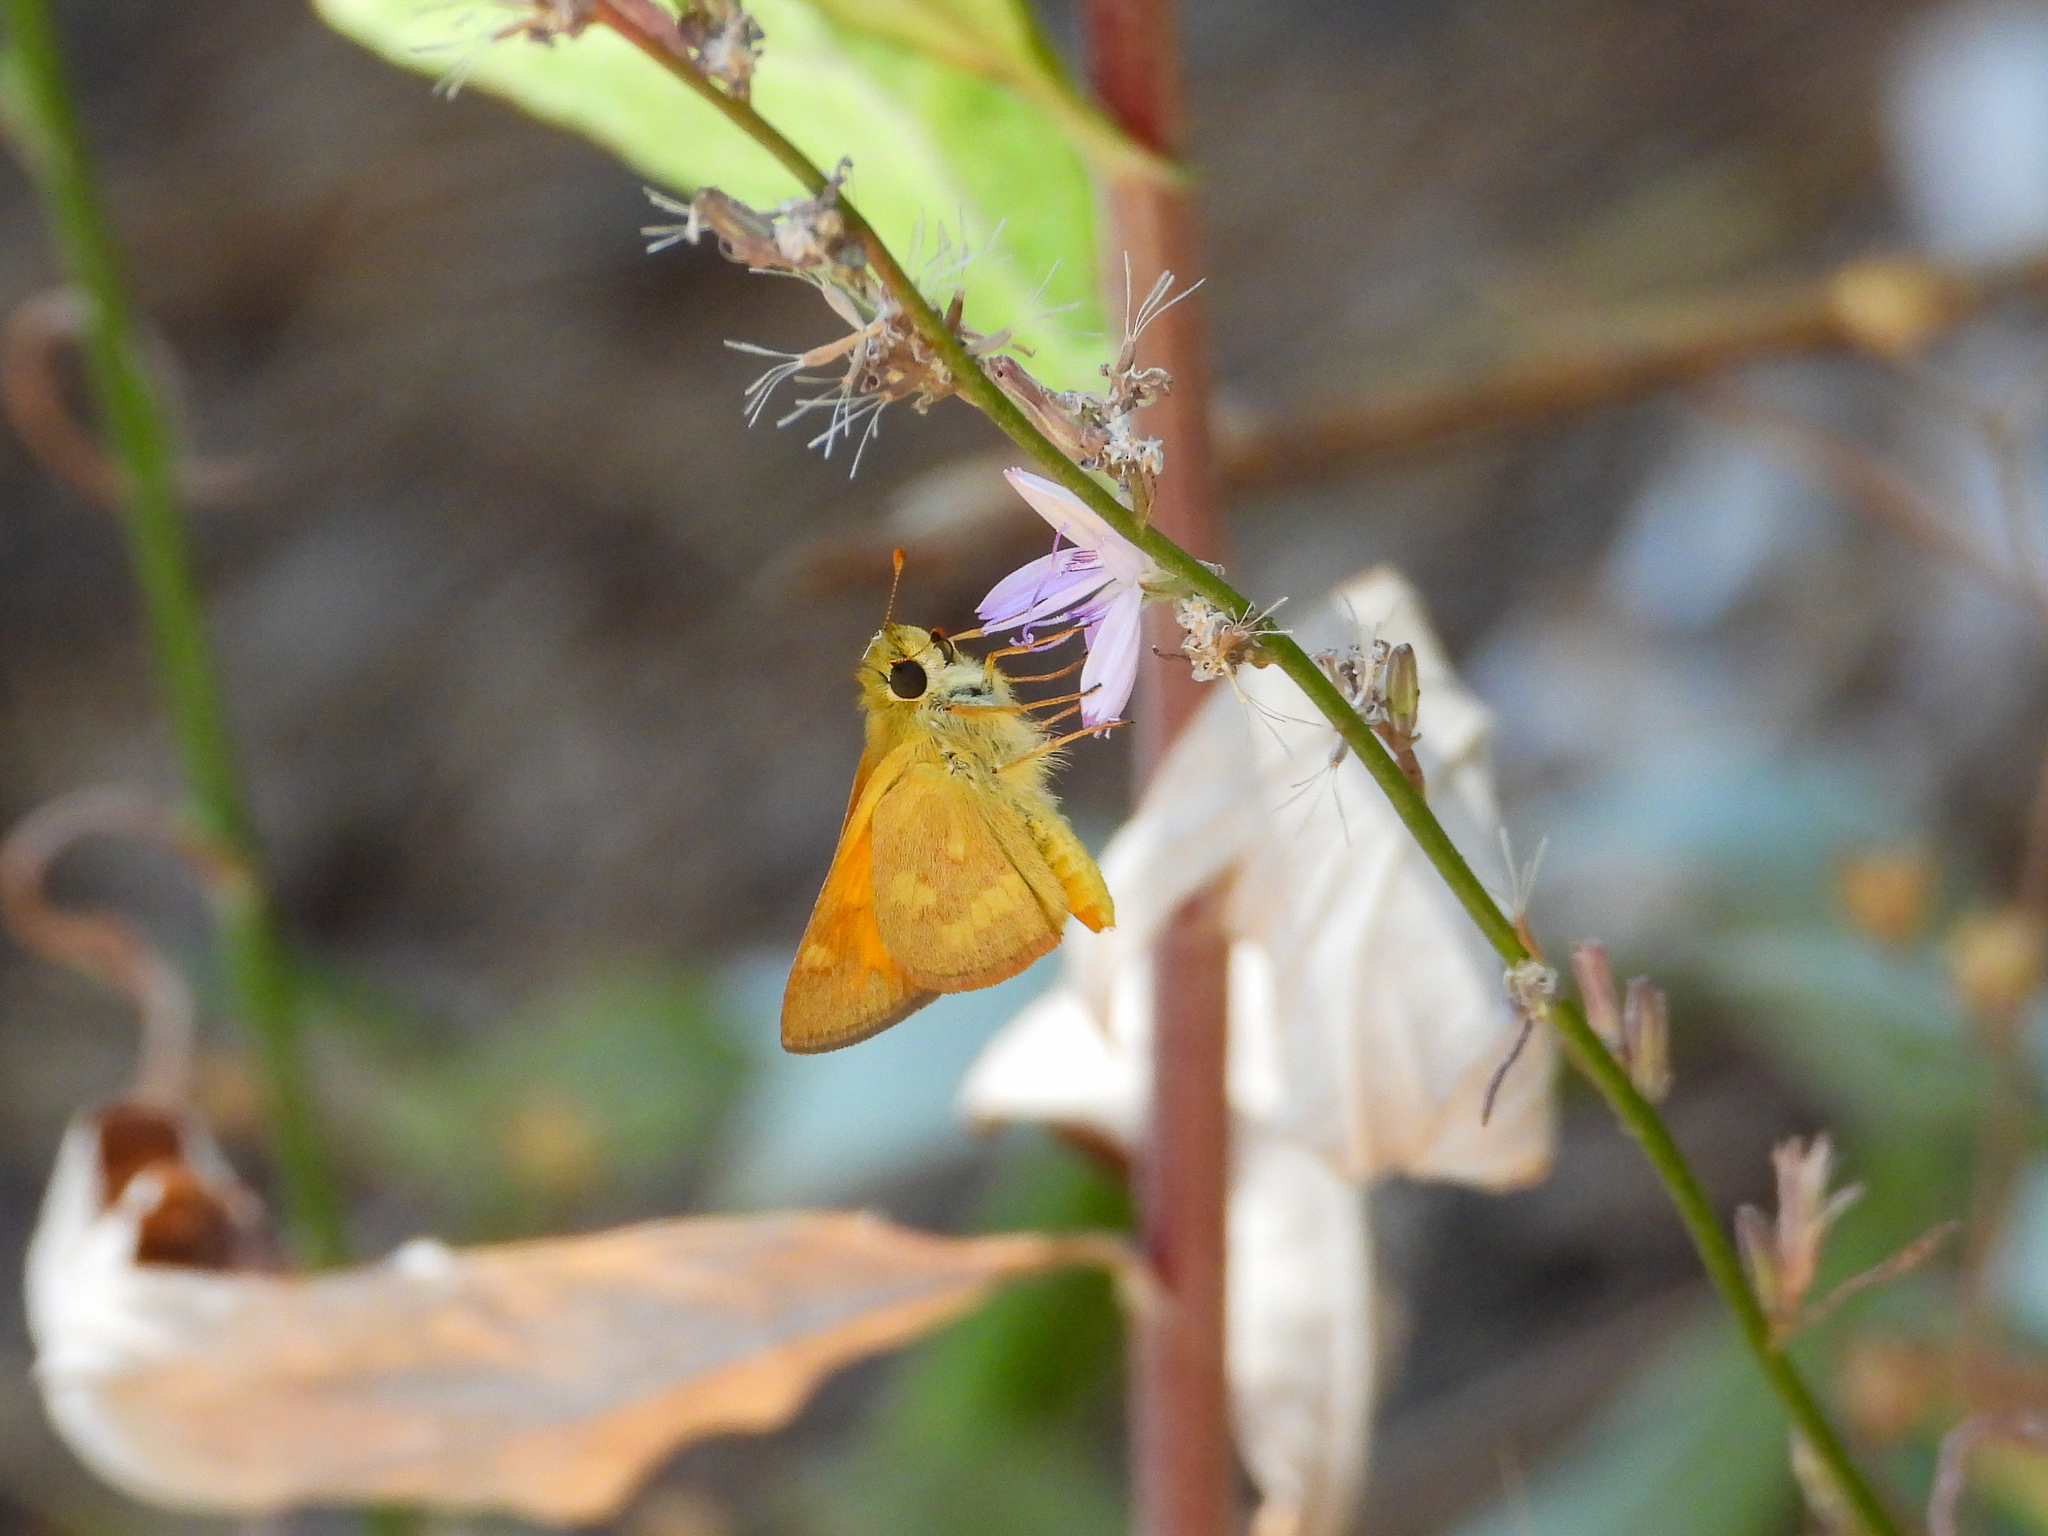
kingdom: Animalia
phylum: Arthropoda
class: Insecta
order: Lepidoptera
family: Hesperiidae
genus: Ochlodes
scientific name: Ochlodes sylvanoides
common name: Woodland skipper
